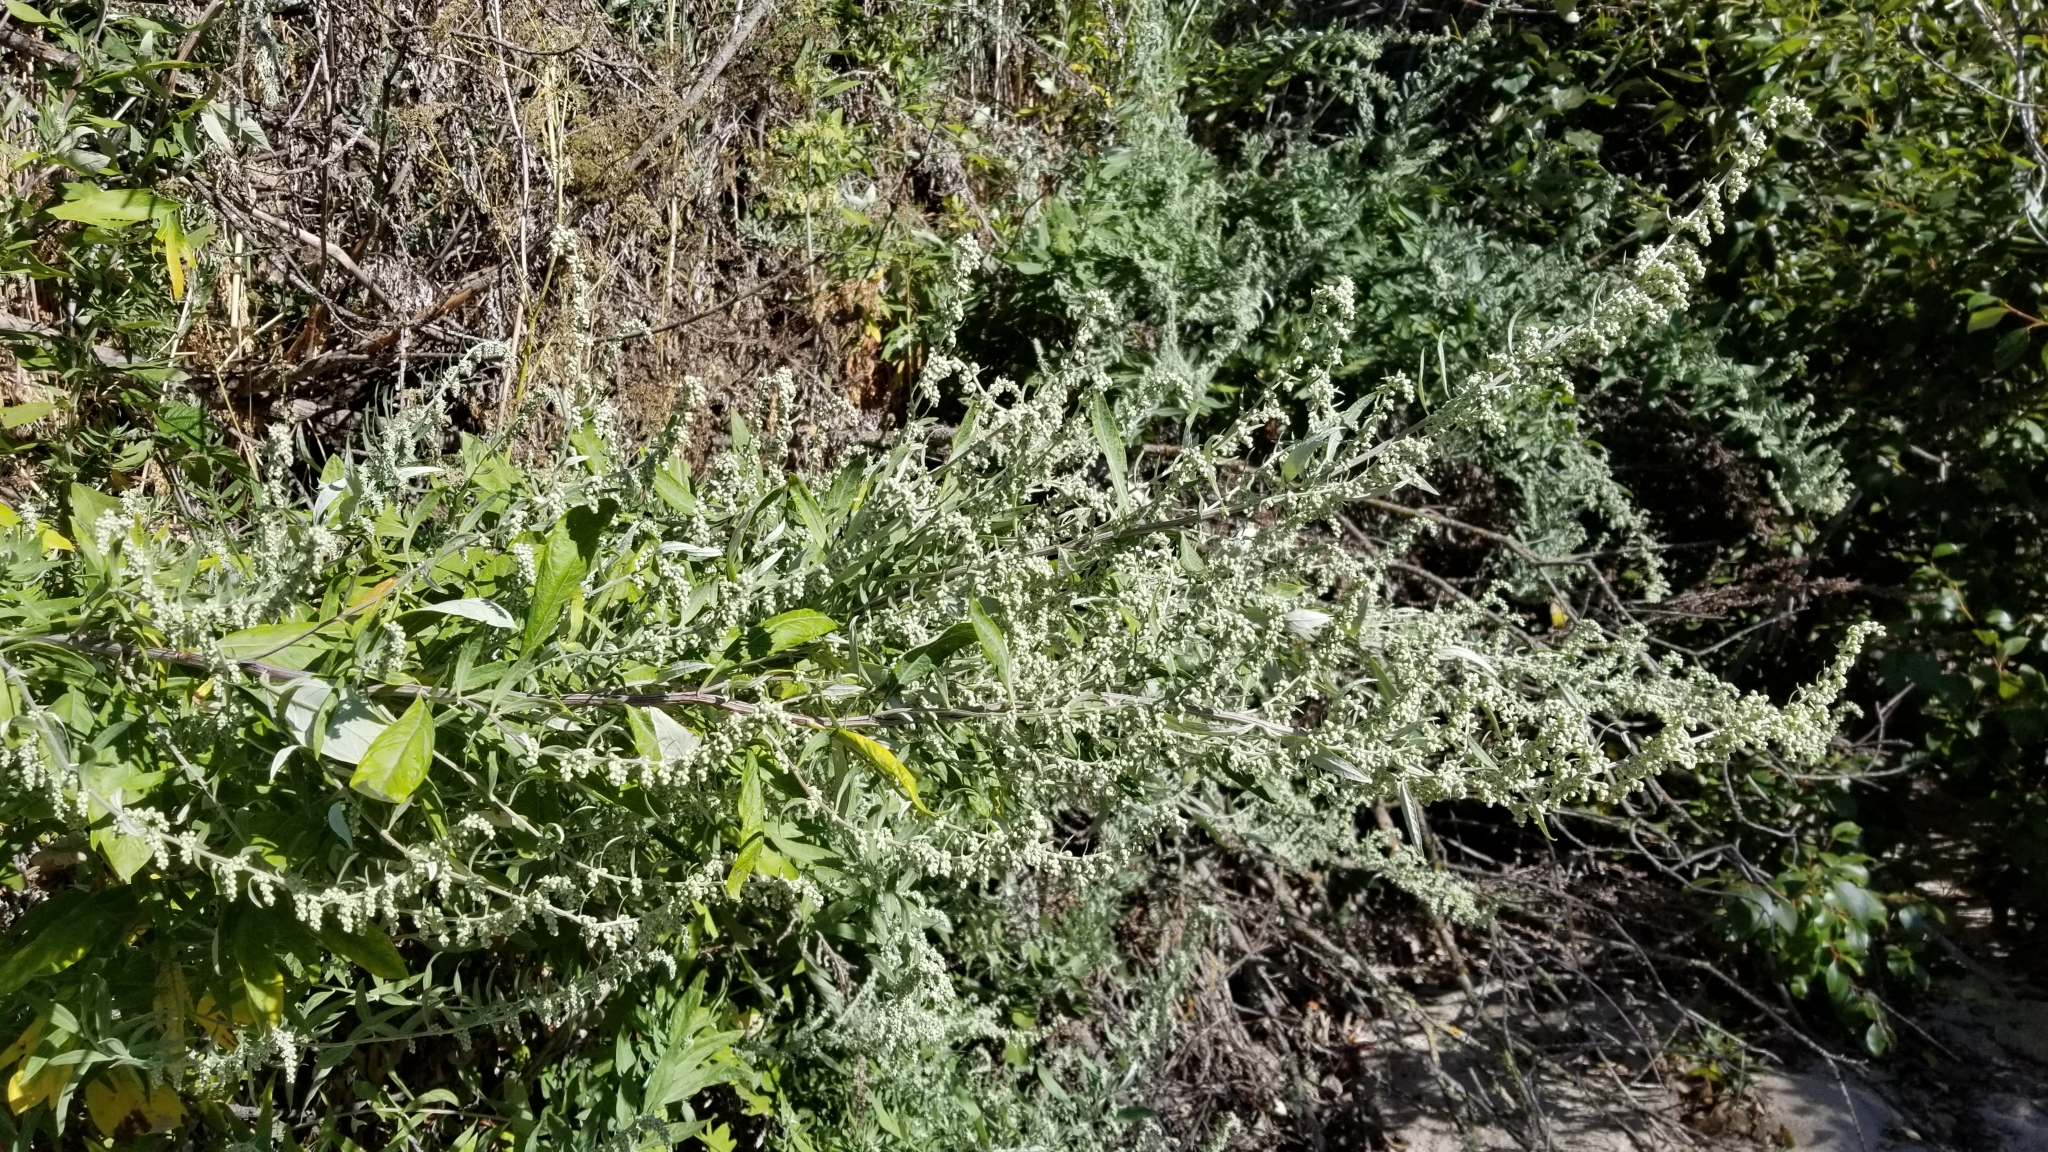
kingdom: Plantae
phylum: Tracheophyta
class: Magnoliopsida
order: Asterales
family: Asteraceae
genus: Artemisia
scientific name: Artemisia douglasiana
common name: Northwest mugwort
